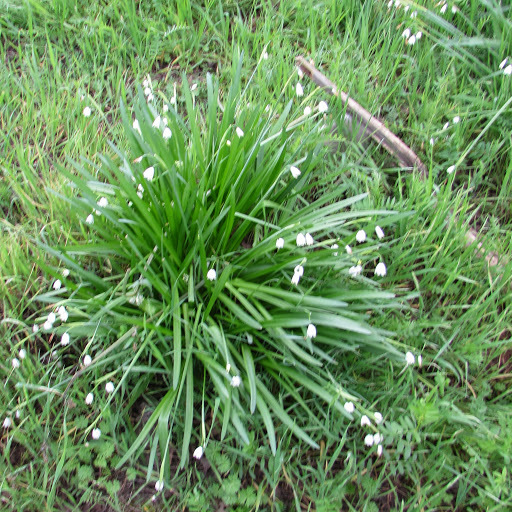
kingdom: Plantae
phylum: Tracheophyta
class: Liliopsida
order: Asparagales
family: Amaryllidaceae
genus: Leucojum
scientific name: Leucojum aestivum
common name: Summer snowflake
